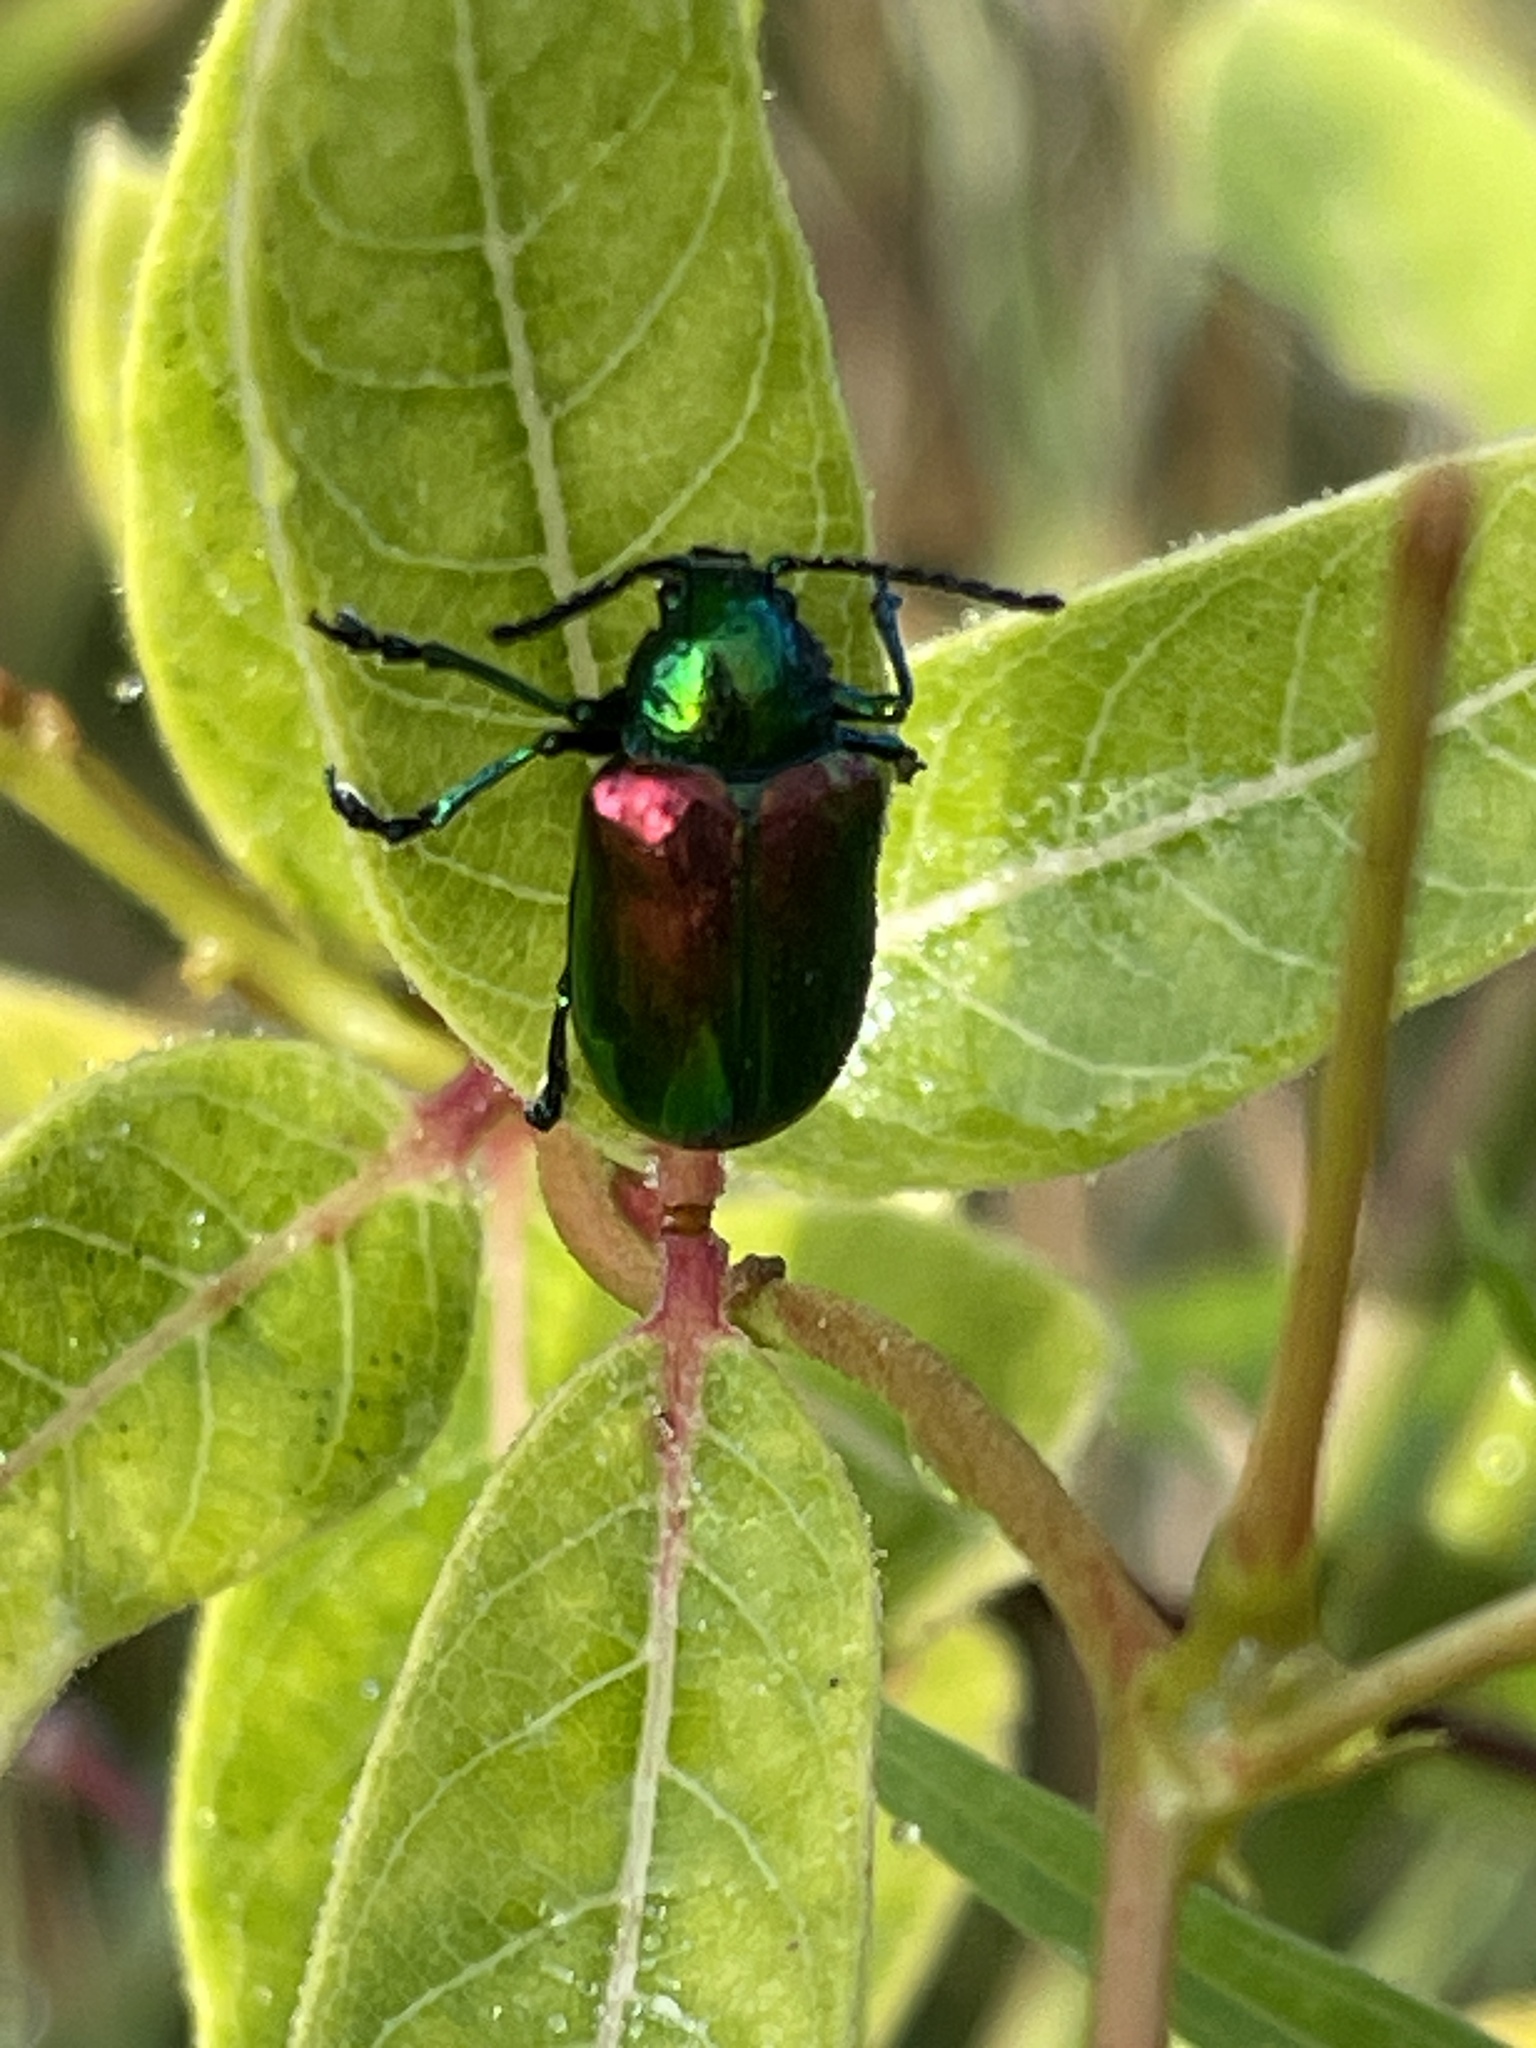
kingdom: Animalia
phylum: Arthropoda
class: Insecta
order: Coleoptera
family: Chrysomelidae
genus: Chrysochus
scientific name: Chrysochus auratus
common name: Dogbane leaf beetle
